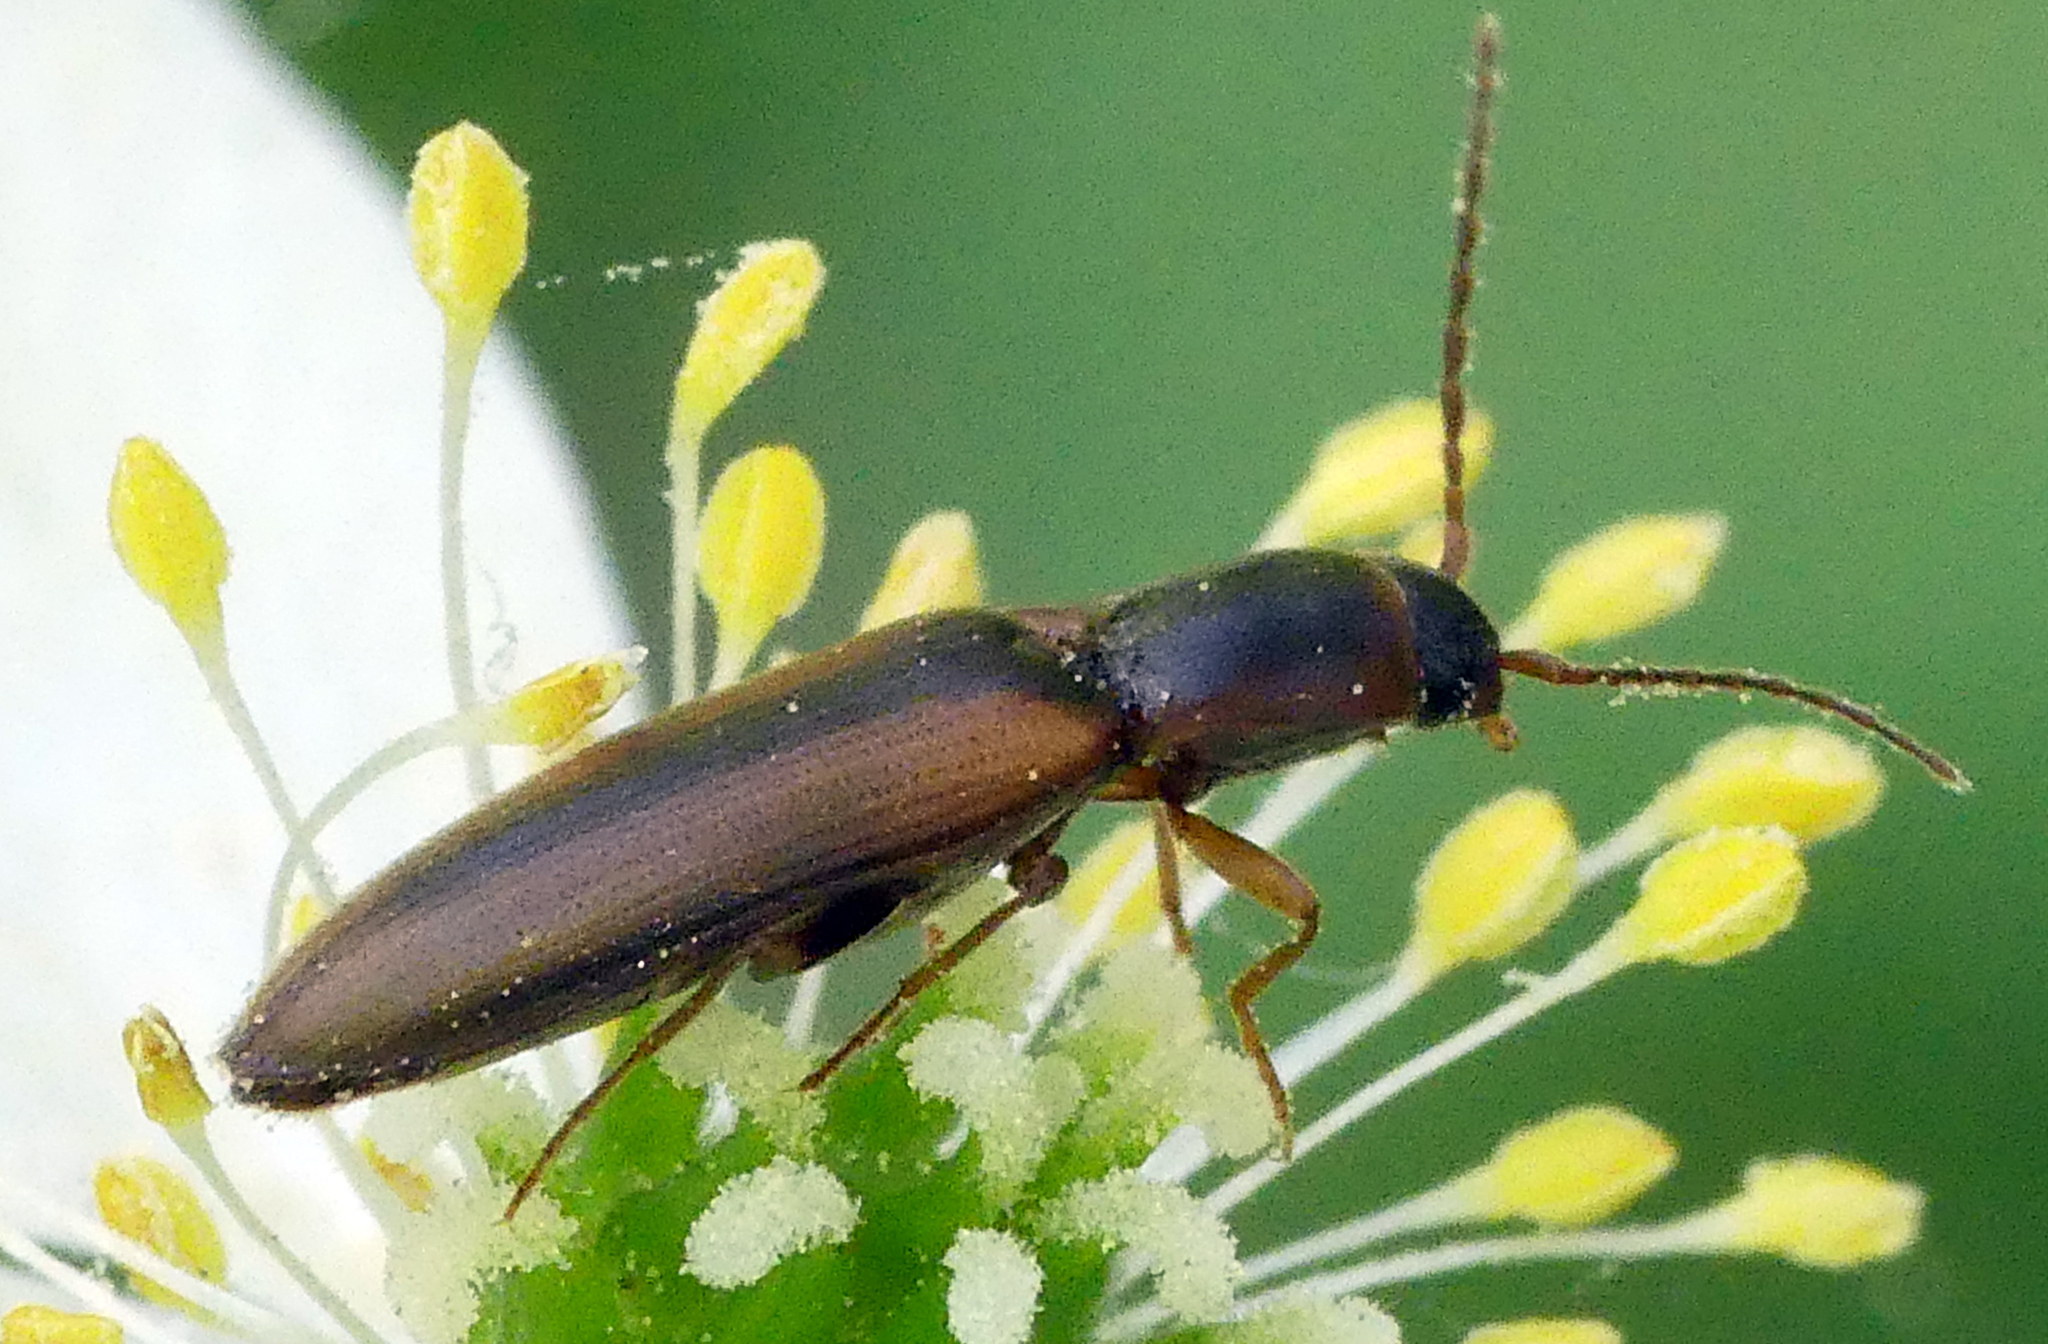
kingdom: Animalia
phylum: Arthropoda
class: Insecta
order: Coleoptera
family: Elateridae
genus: Dalopius
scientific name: Dalopius marginatus
